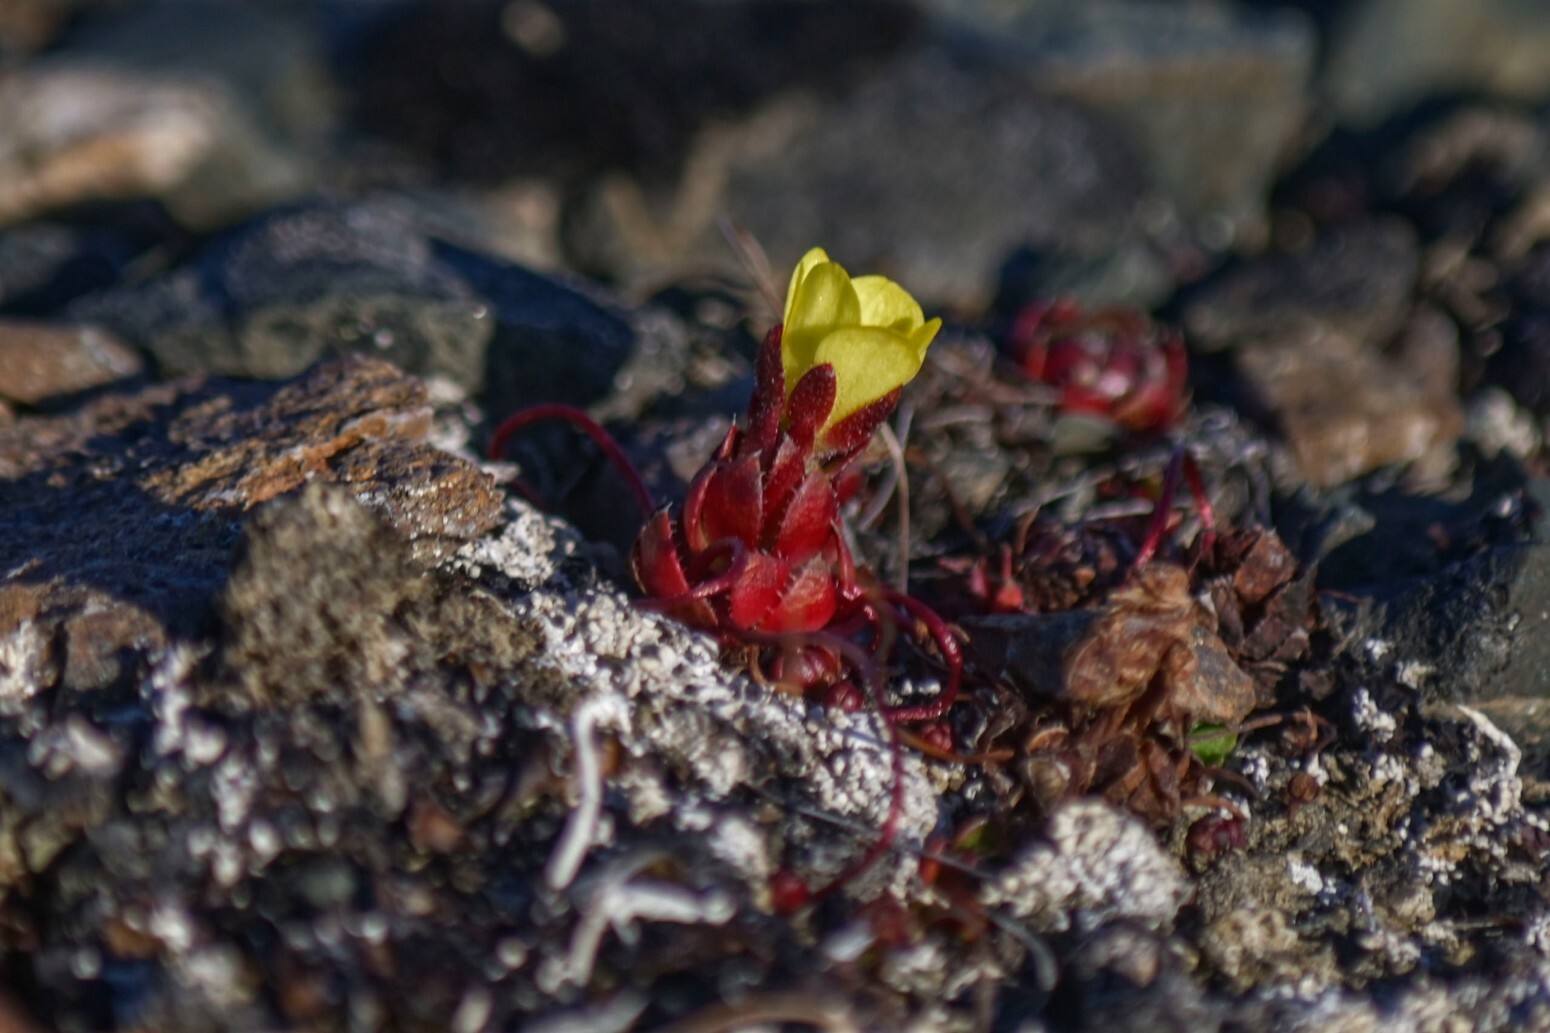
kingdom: Plantae
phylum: Tracheophyta
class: Magnoliopsida
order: Saxifragales
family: Saxifragaceae
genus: Saxifraga
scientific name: Saxifraga platysepala
